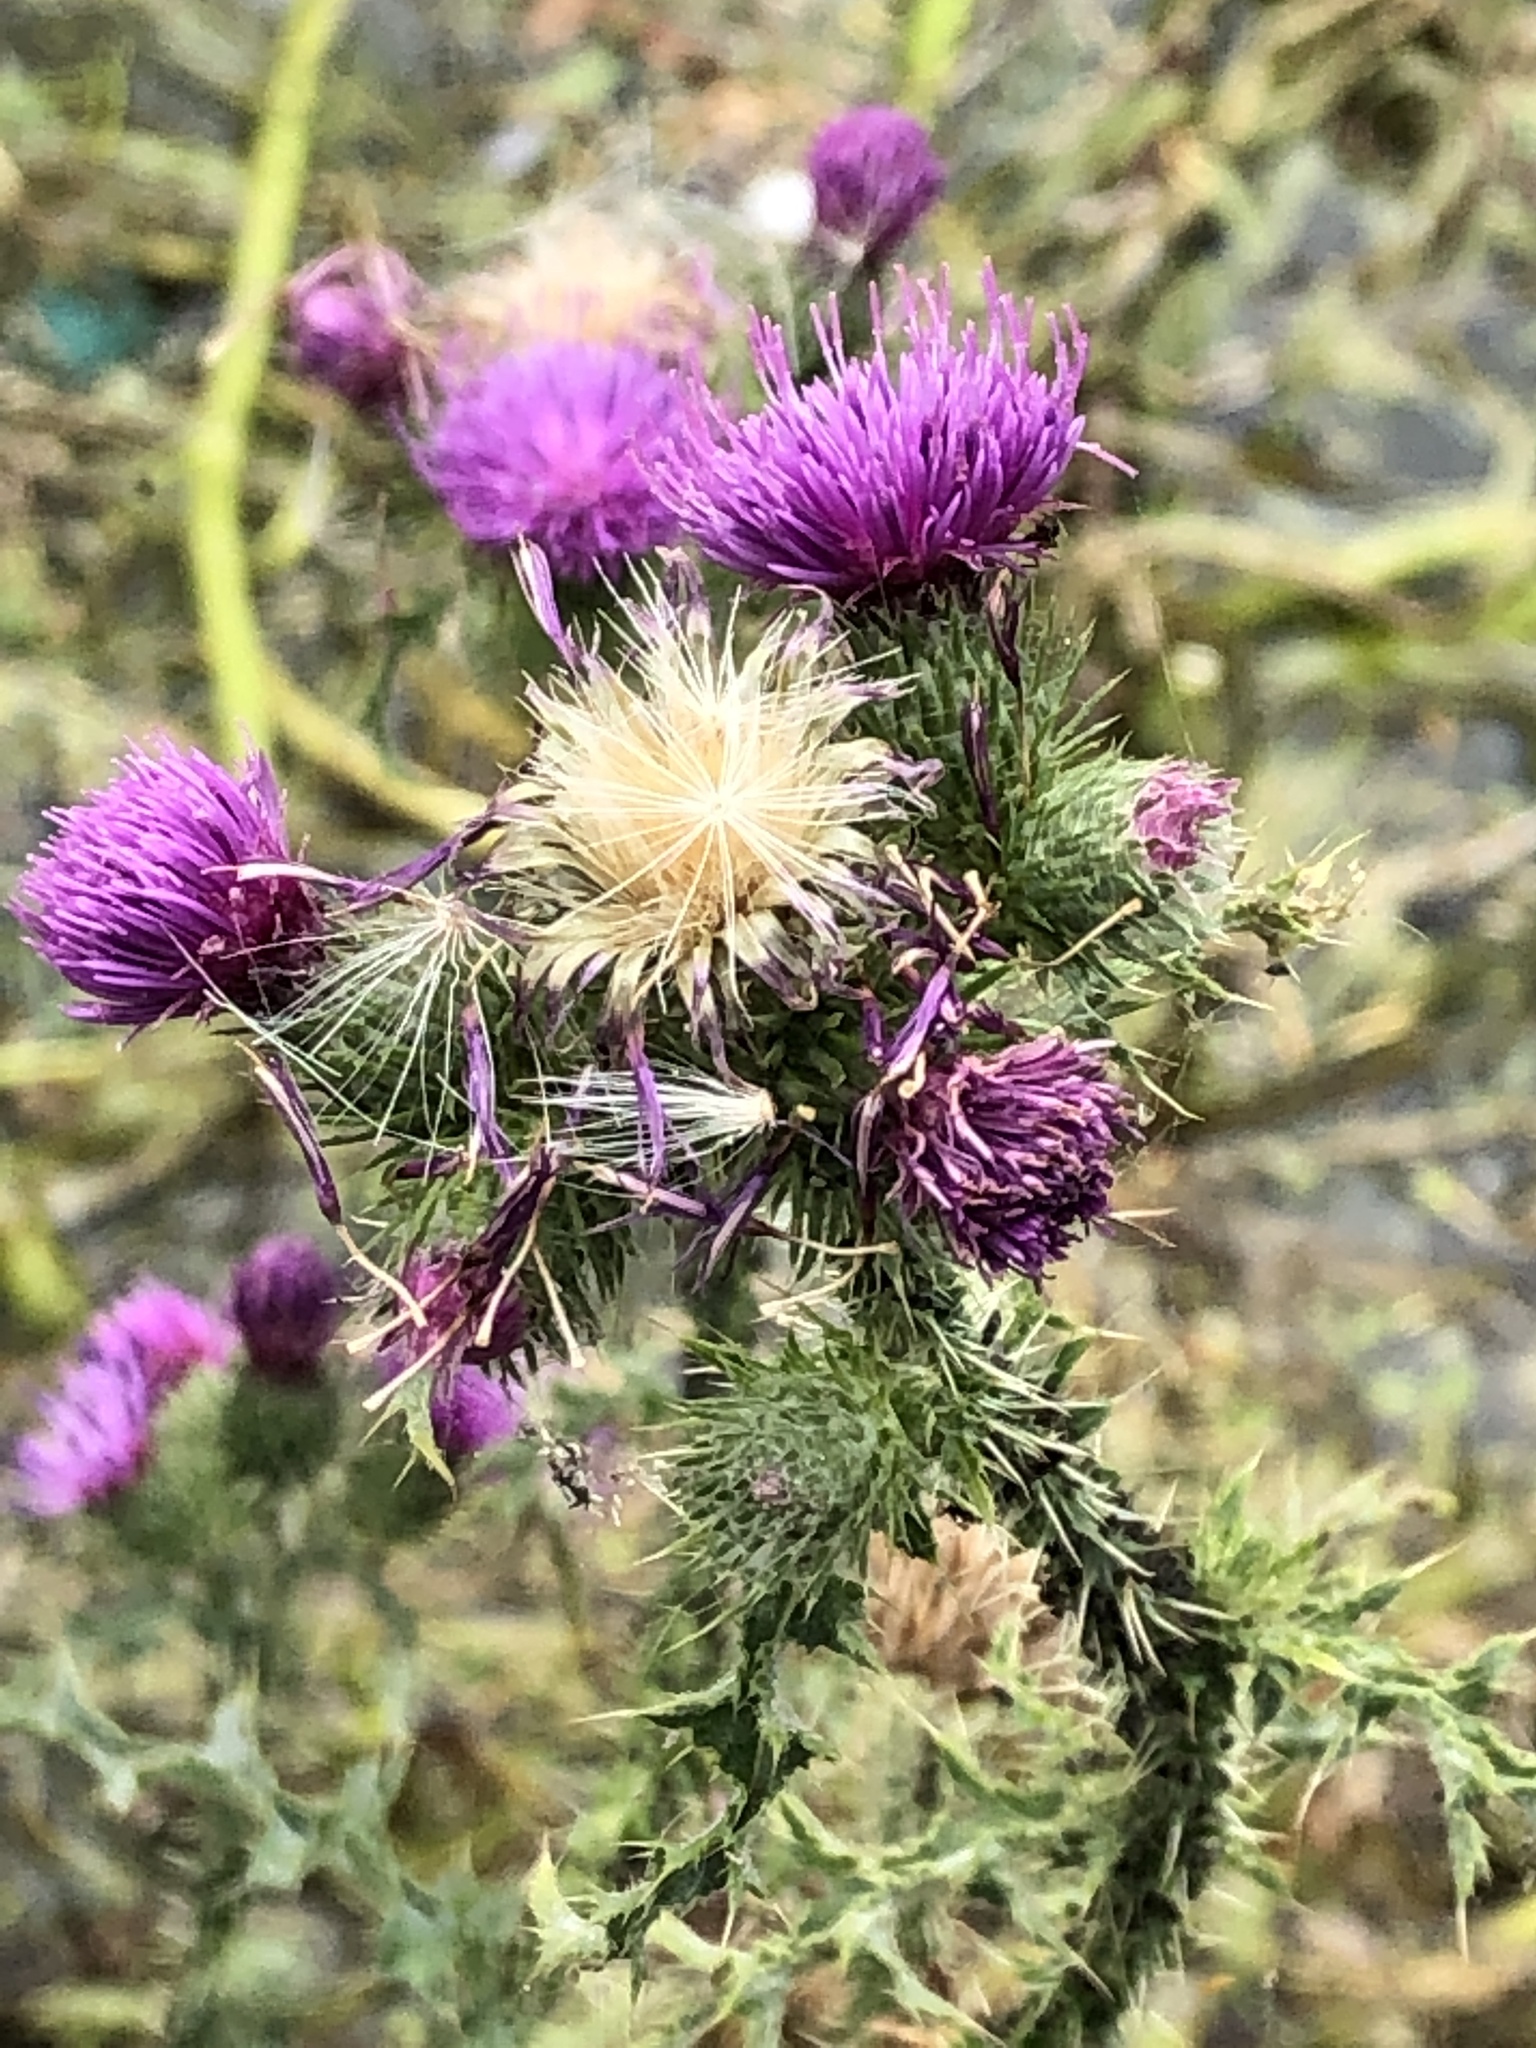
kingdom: Plantae
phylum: Tracheophyta
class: Magnoliopsida
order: Asterales
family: Asteraceae
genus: Cirsium
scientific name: Cirsium palustre
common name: Marsh thistle
